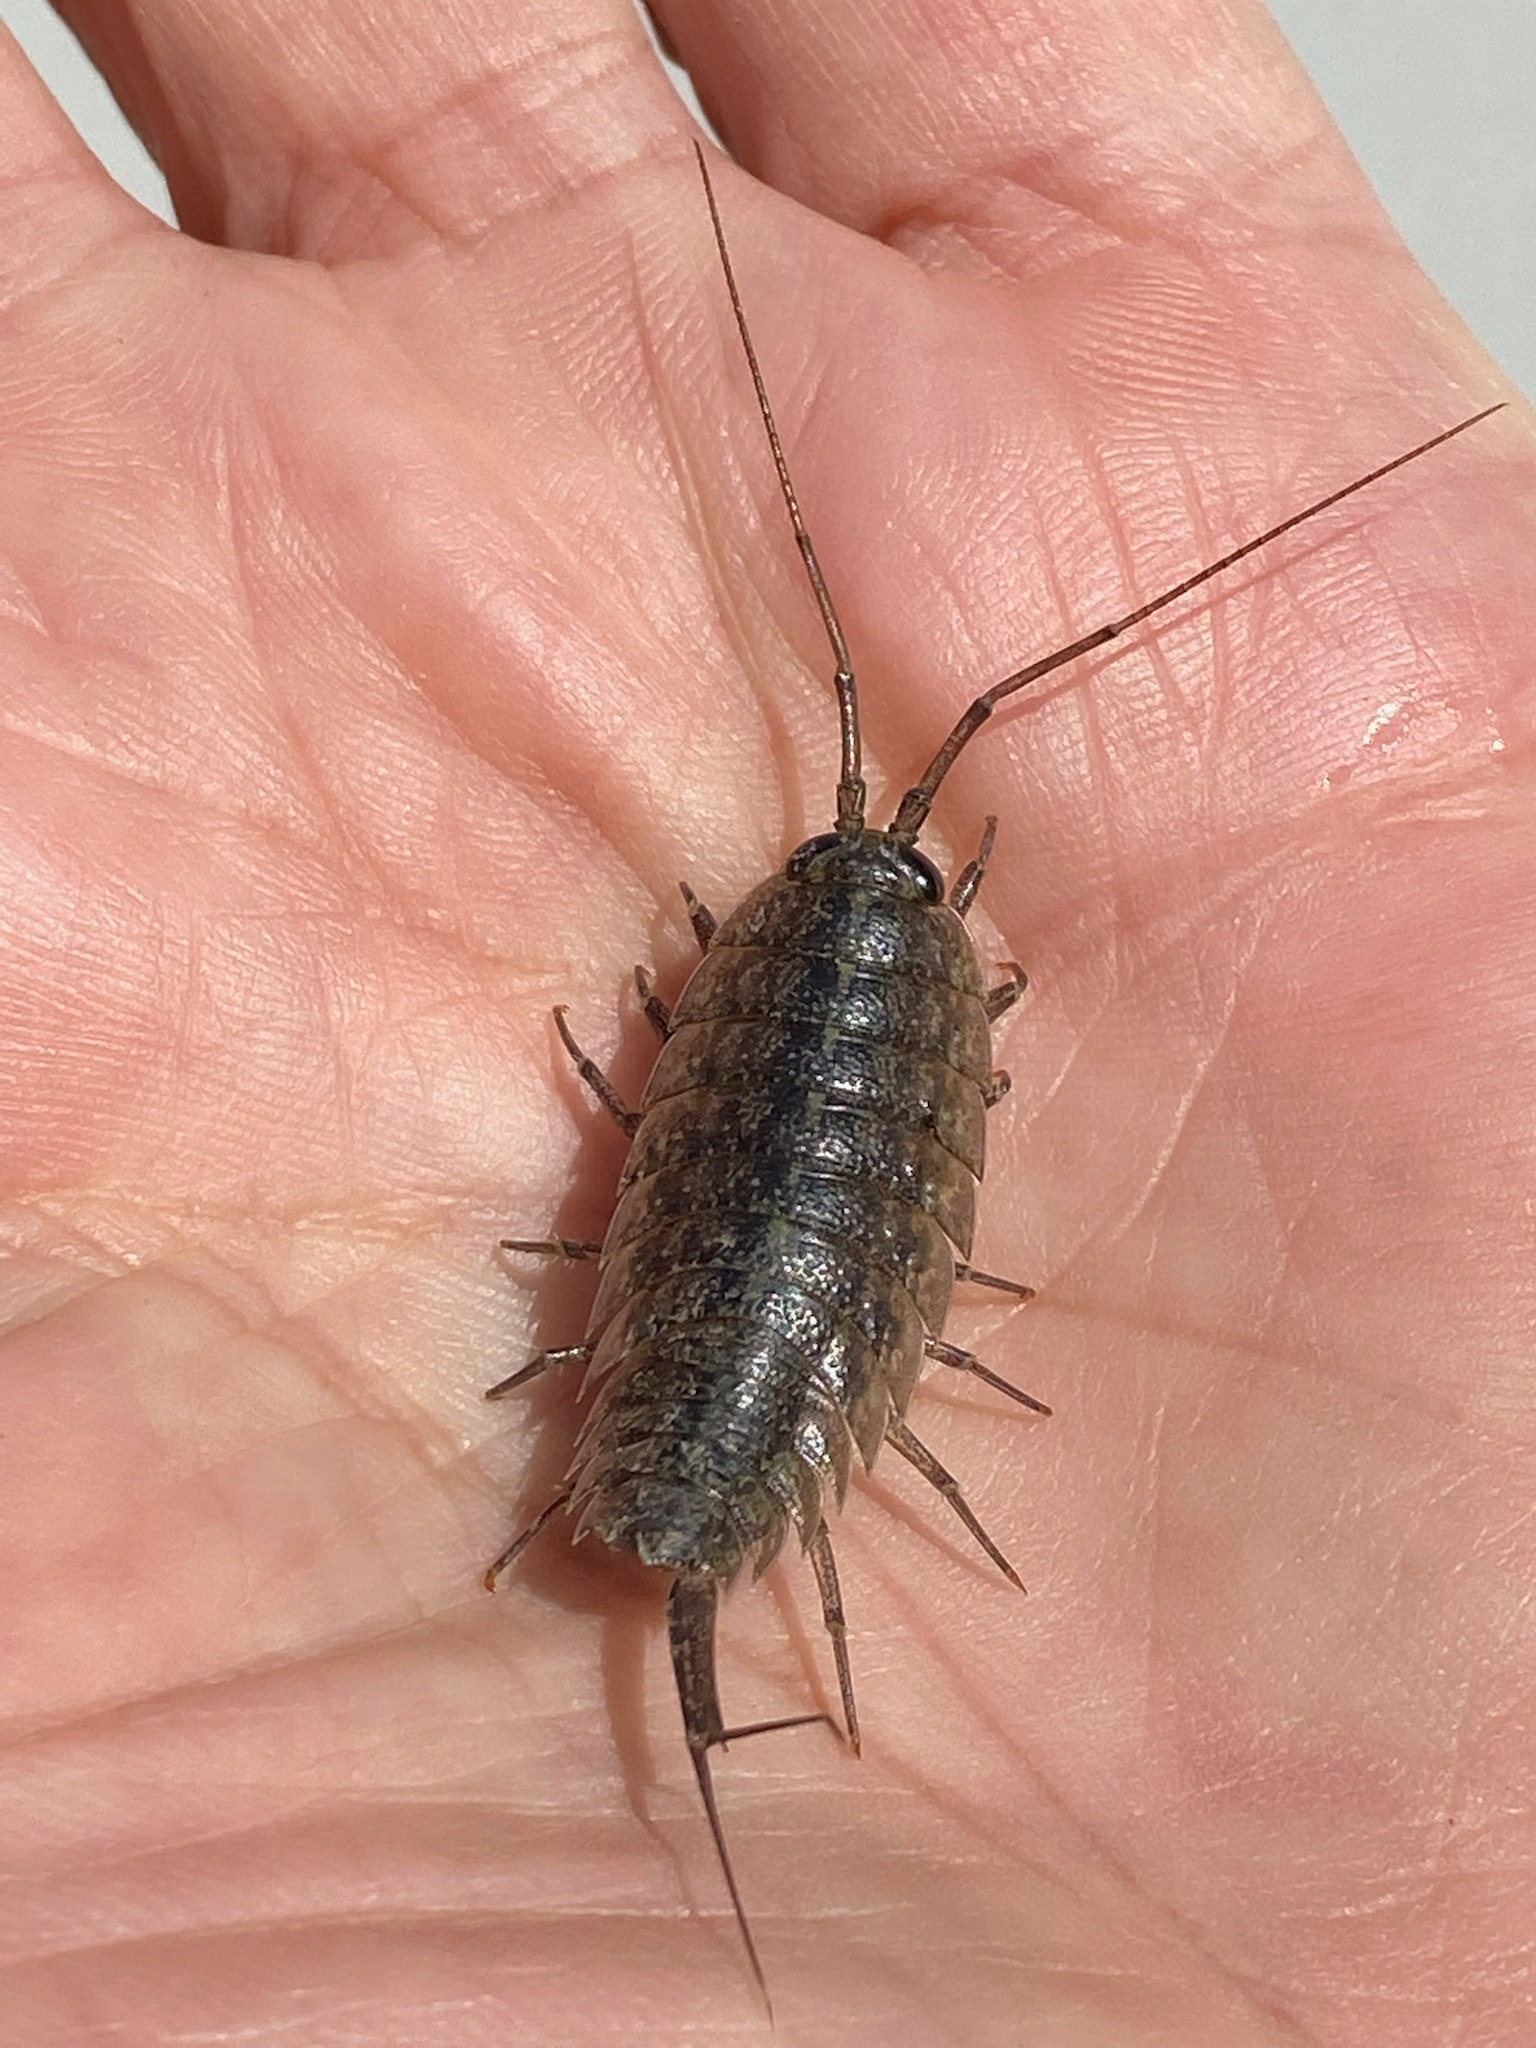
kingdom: Animalia
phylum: Arthropoda
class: Malacostraca
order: Isopoda
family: Ligiidae
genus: Ligia
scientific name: Ligia exotica
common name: Wharf roach
